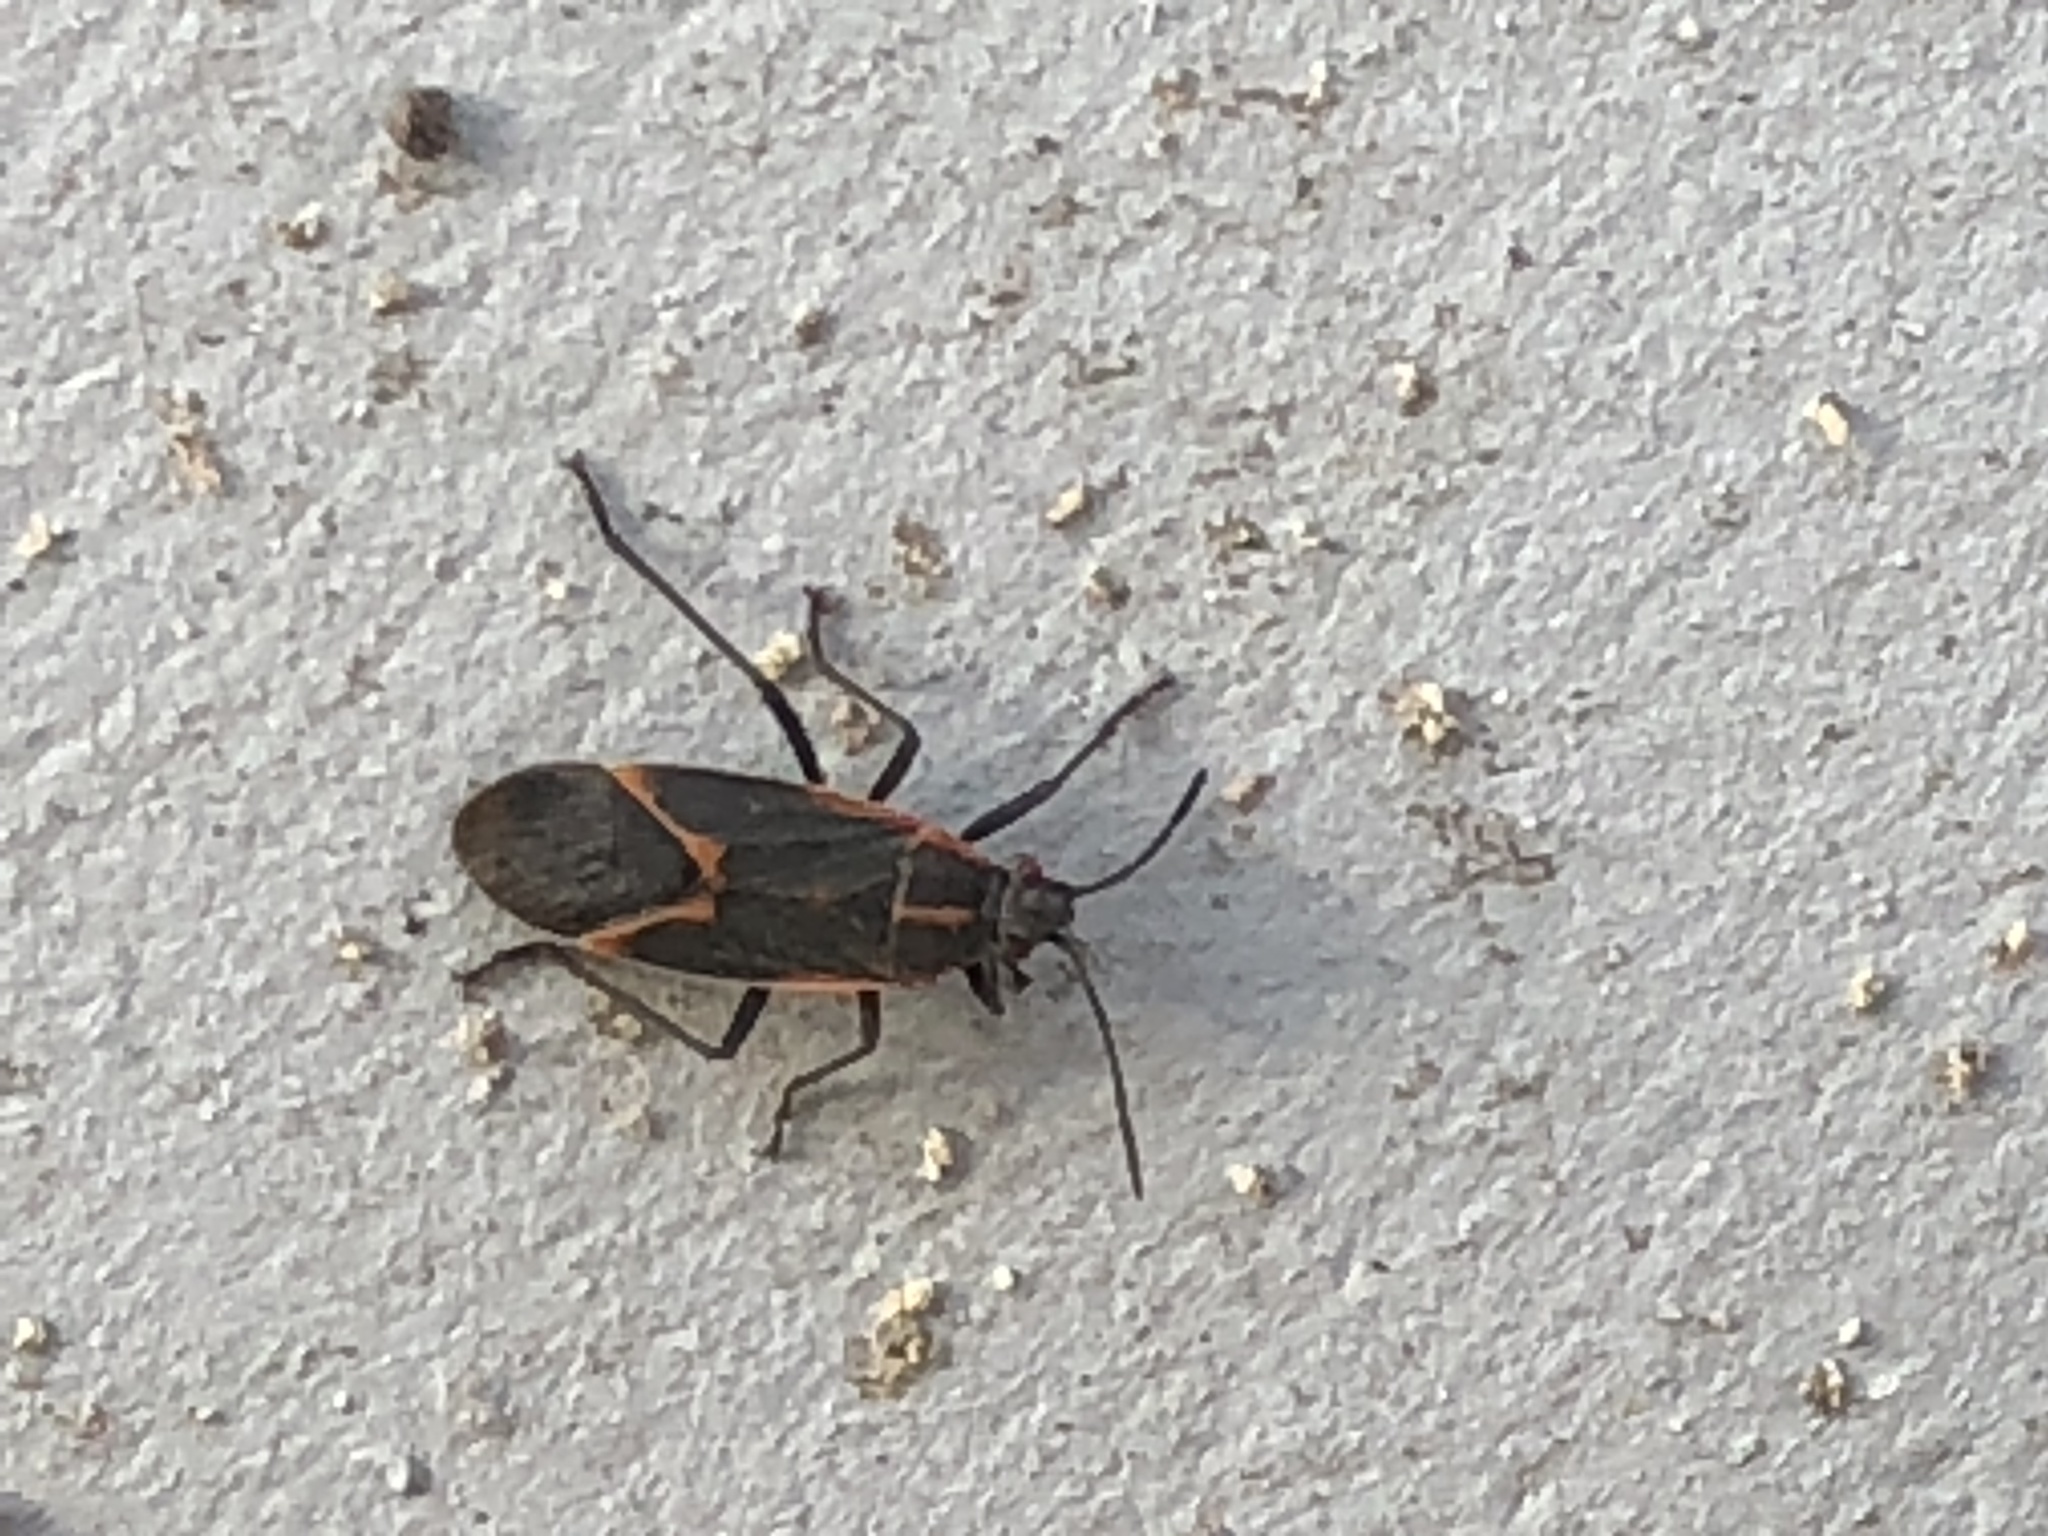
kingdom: Animalia
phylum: Arthropoda
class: Insecta
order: Hemiptera
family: Rhopalidae
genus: Boisea
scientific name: Boisea trivittata
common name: Boxelder bug
